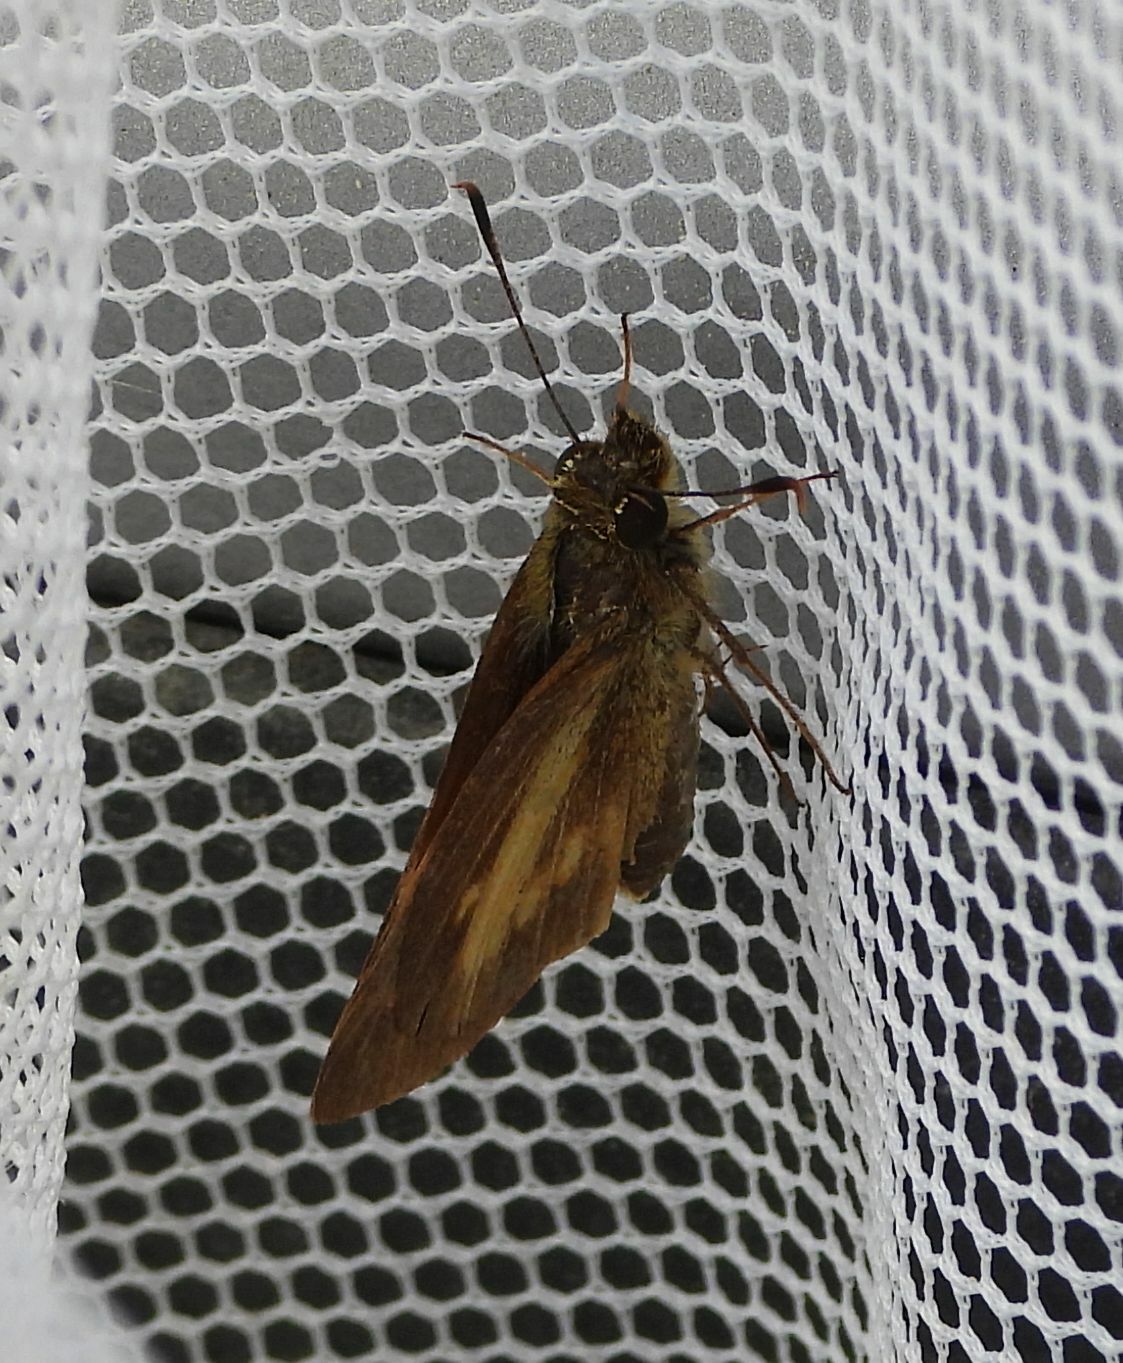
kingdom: Animalia
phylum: Arthropoda
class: Insecta
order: Lepidoptera
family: Hesperiidae
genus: Poanes
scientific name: Poanes viator
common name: Broad-winged skipper
